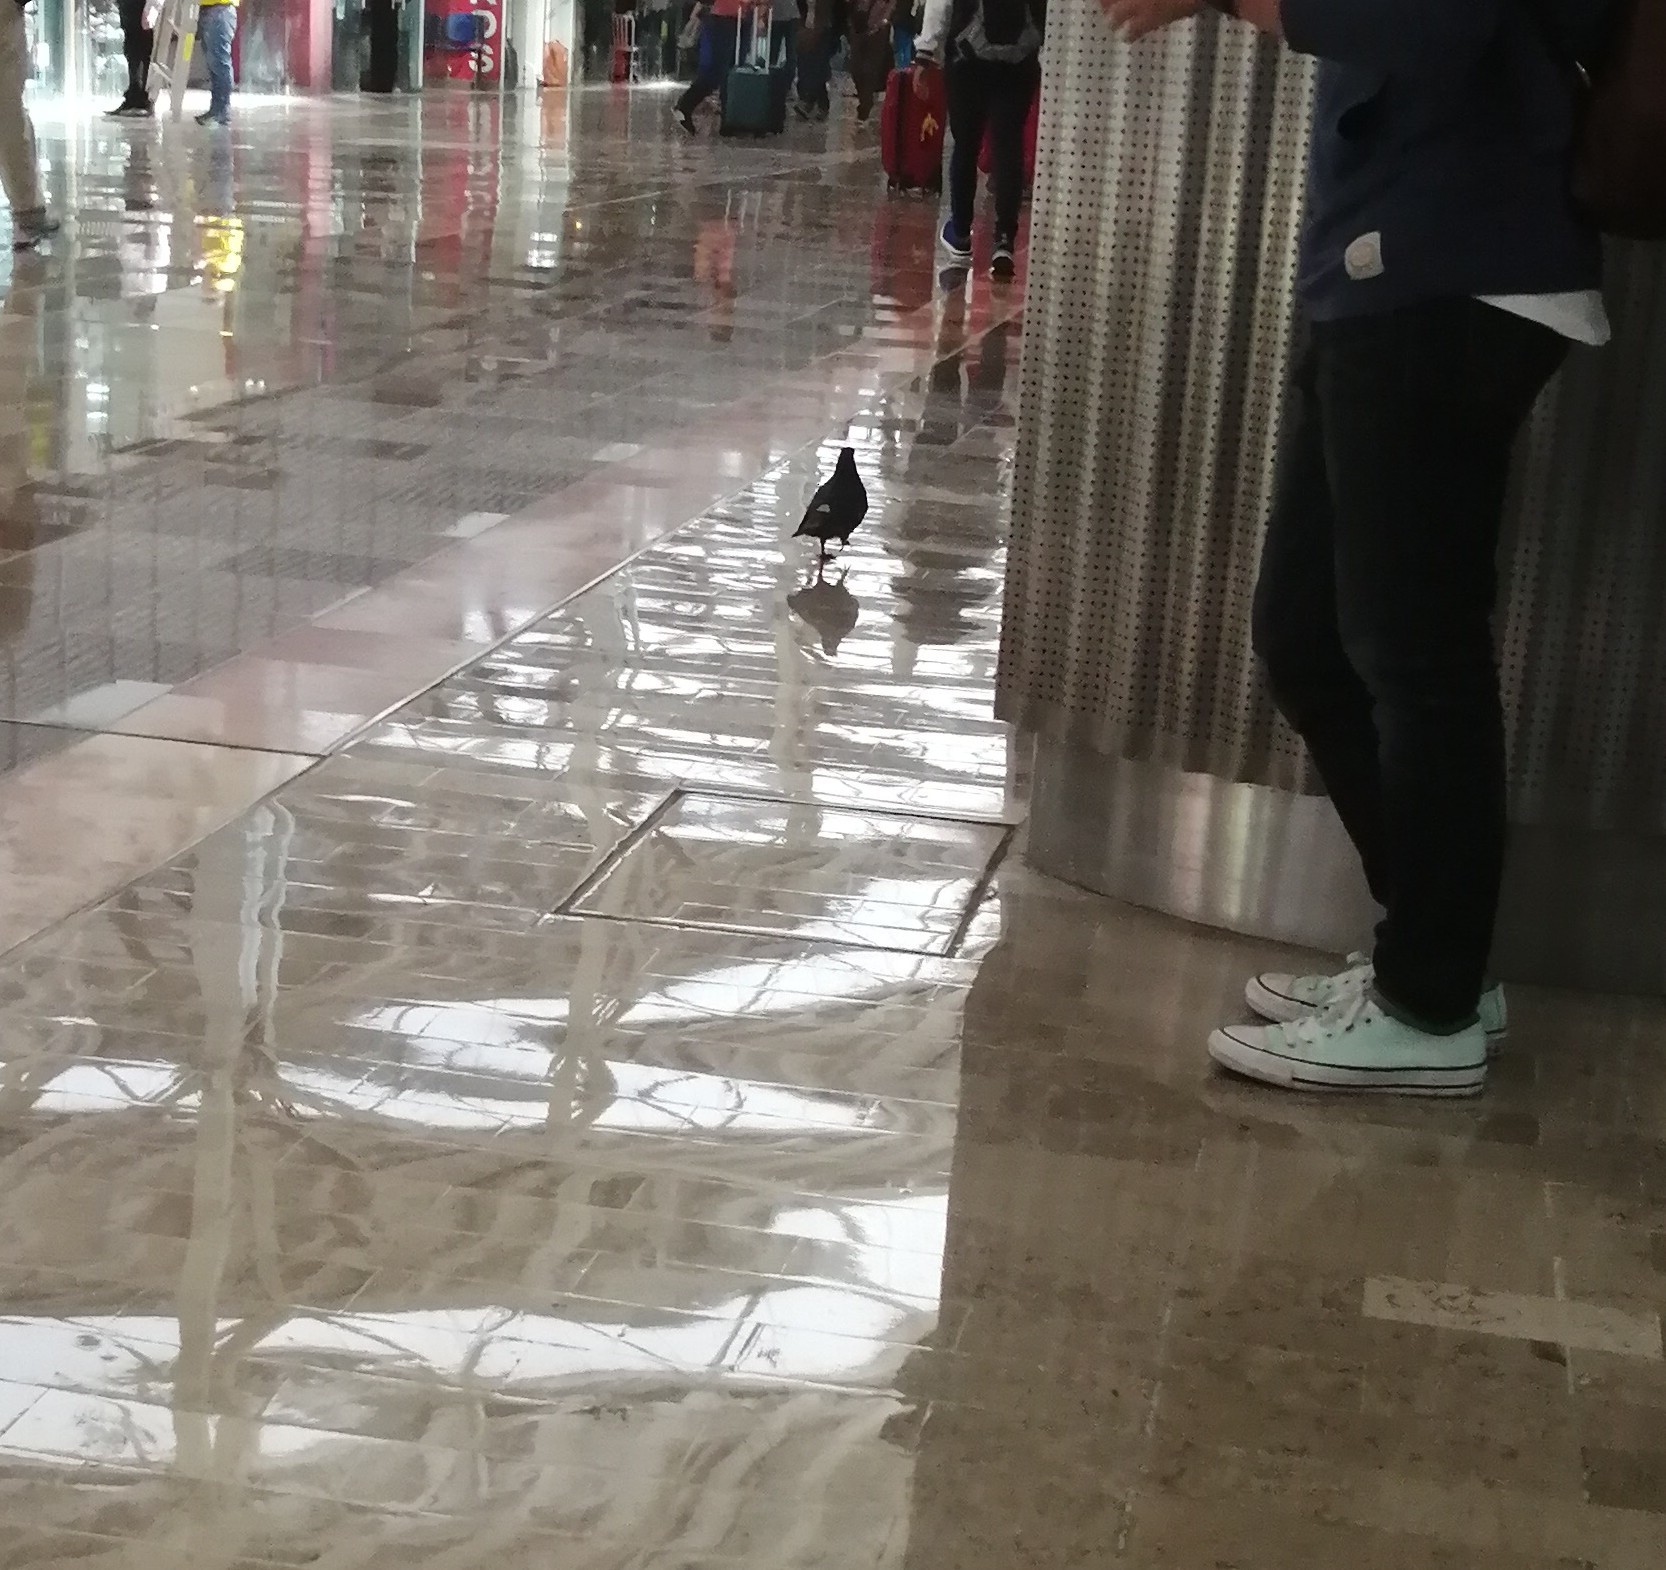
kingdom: Animalia
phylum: Chordata
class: Aves
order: Columbiformes
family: Columbidae
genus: Columba
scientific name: Columba livia
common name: Rock pigeon
